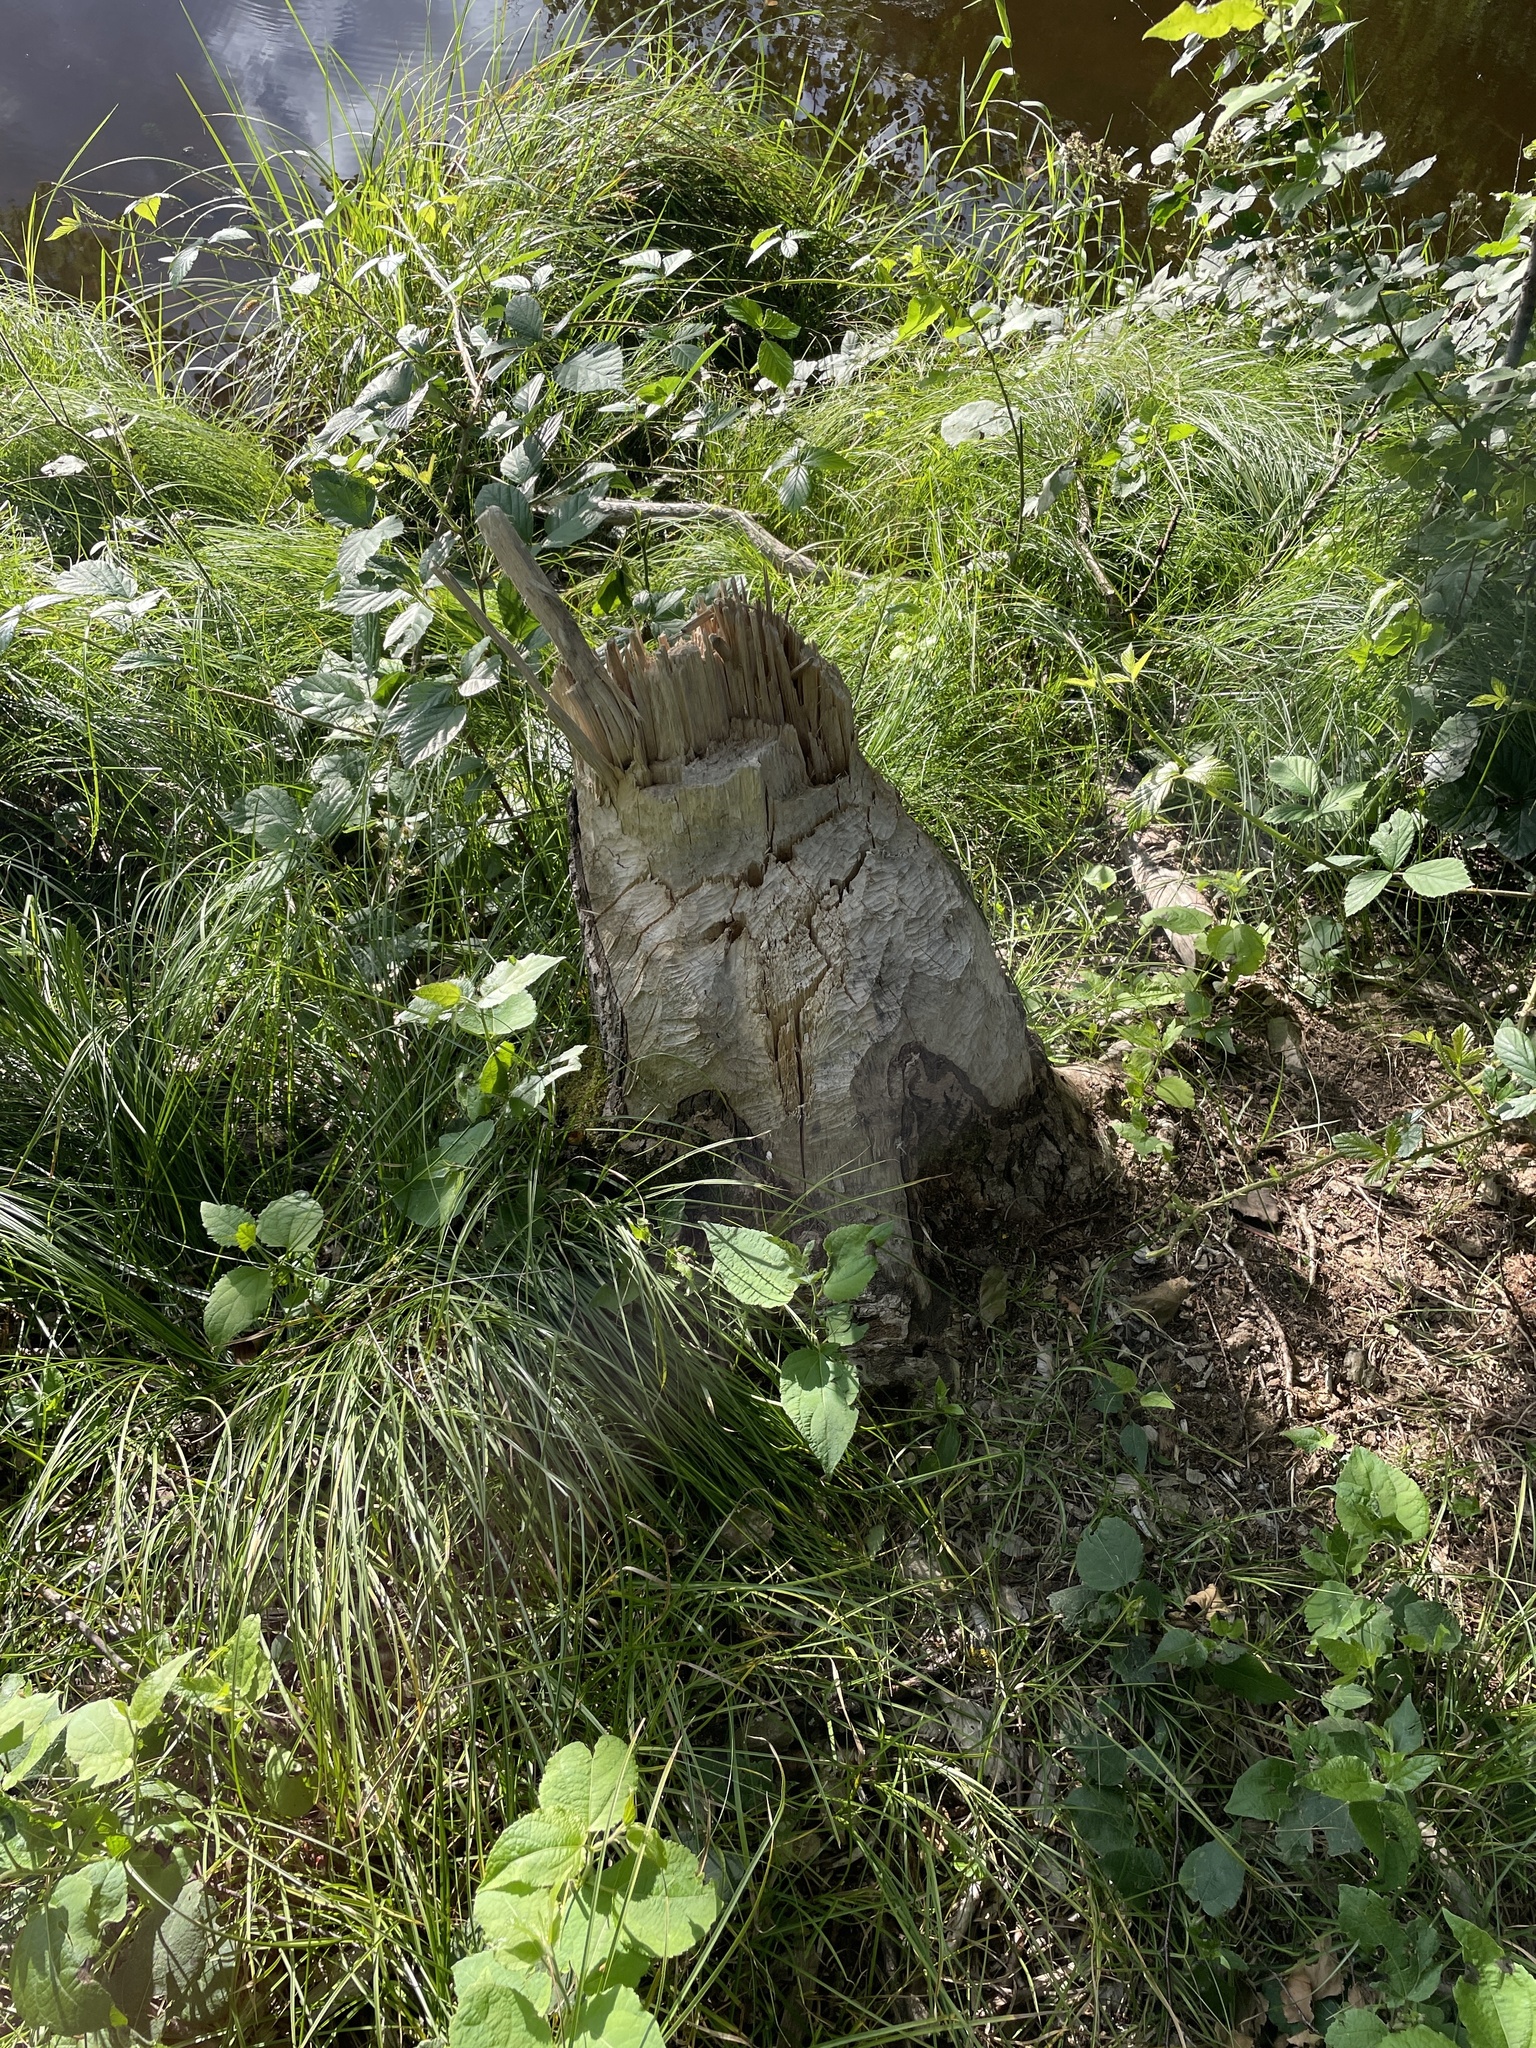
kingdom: Animalia
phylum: Chordata
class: Mammalia
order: Rodentia
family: Castoridae
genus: Castor
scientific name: Castor fiber
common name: Eurasian beaver
